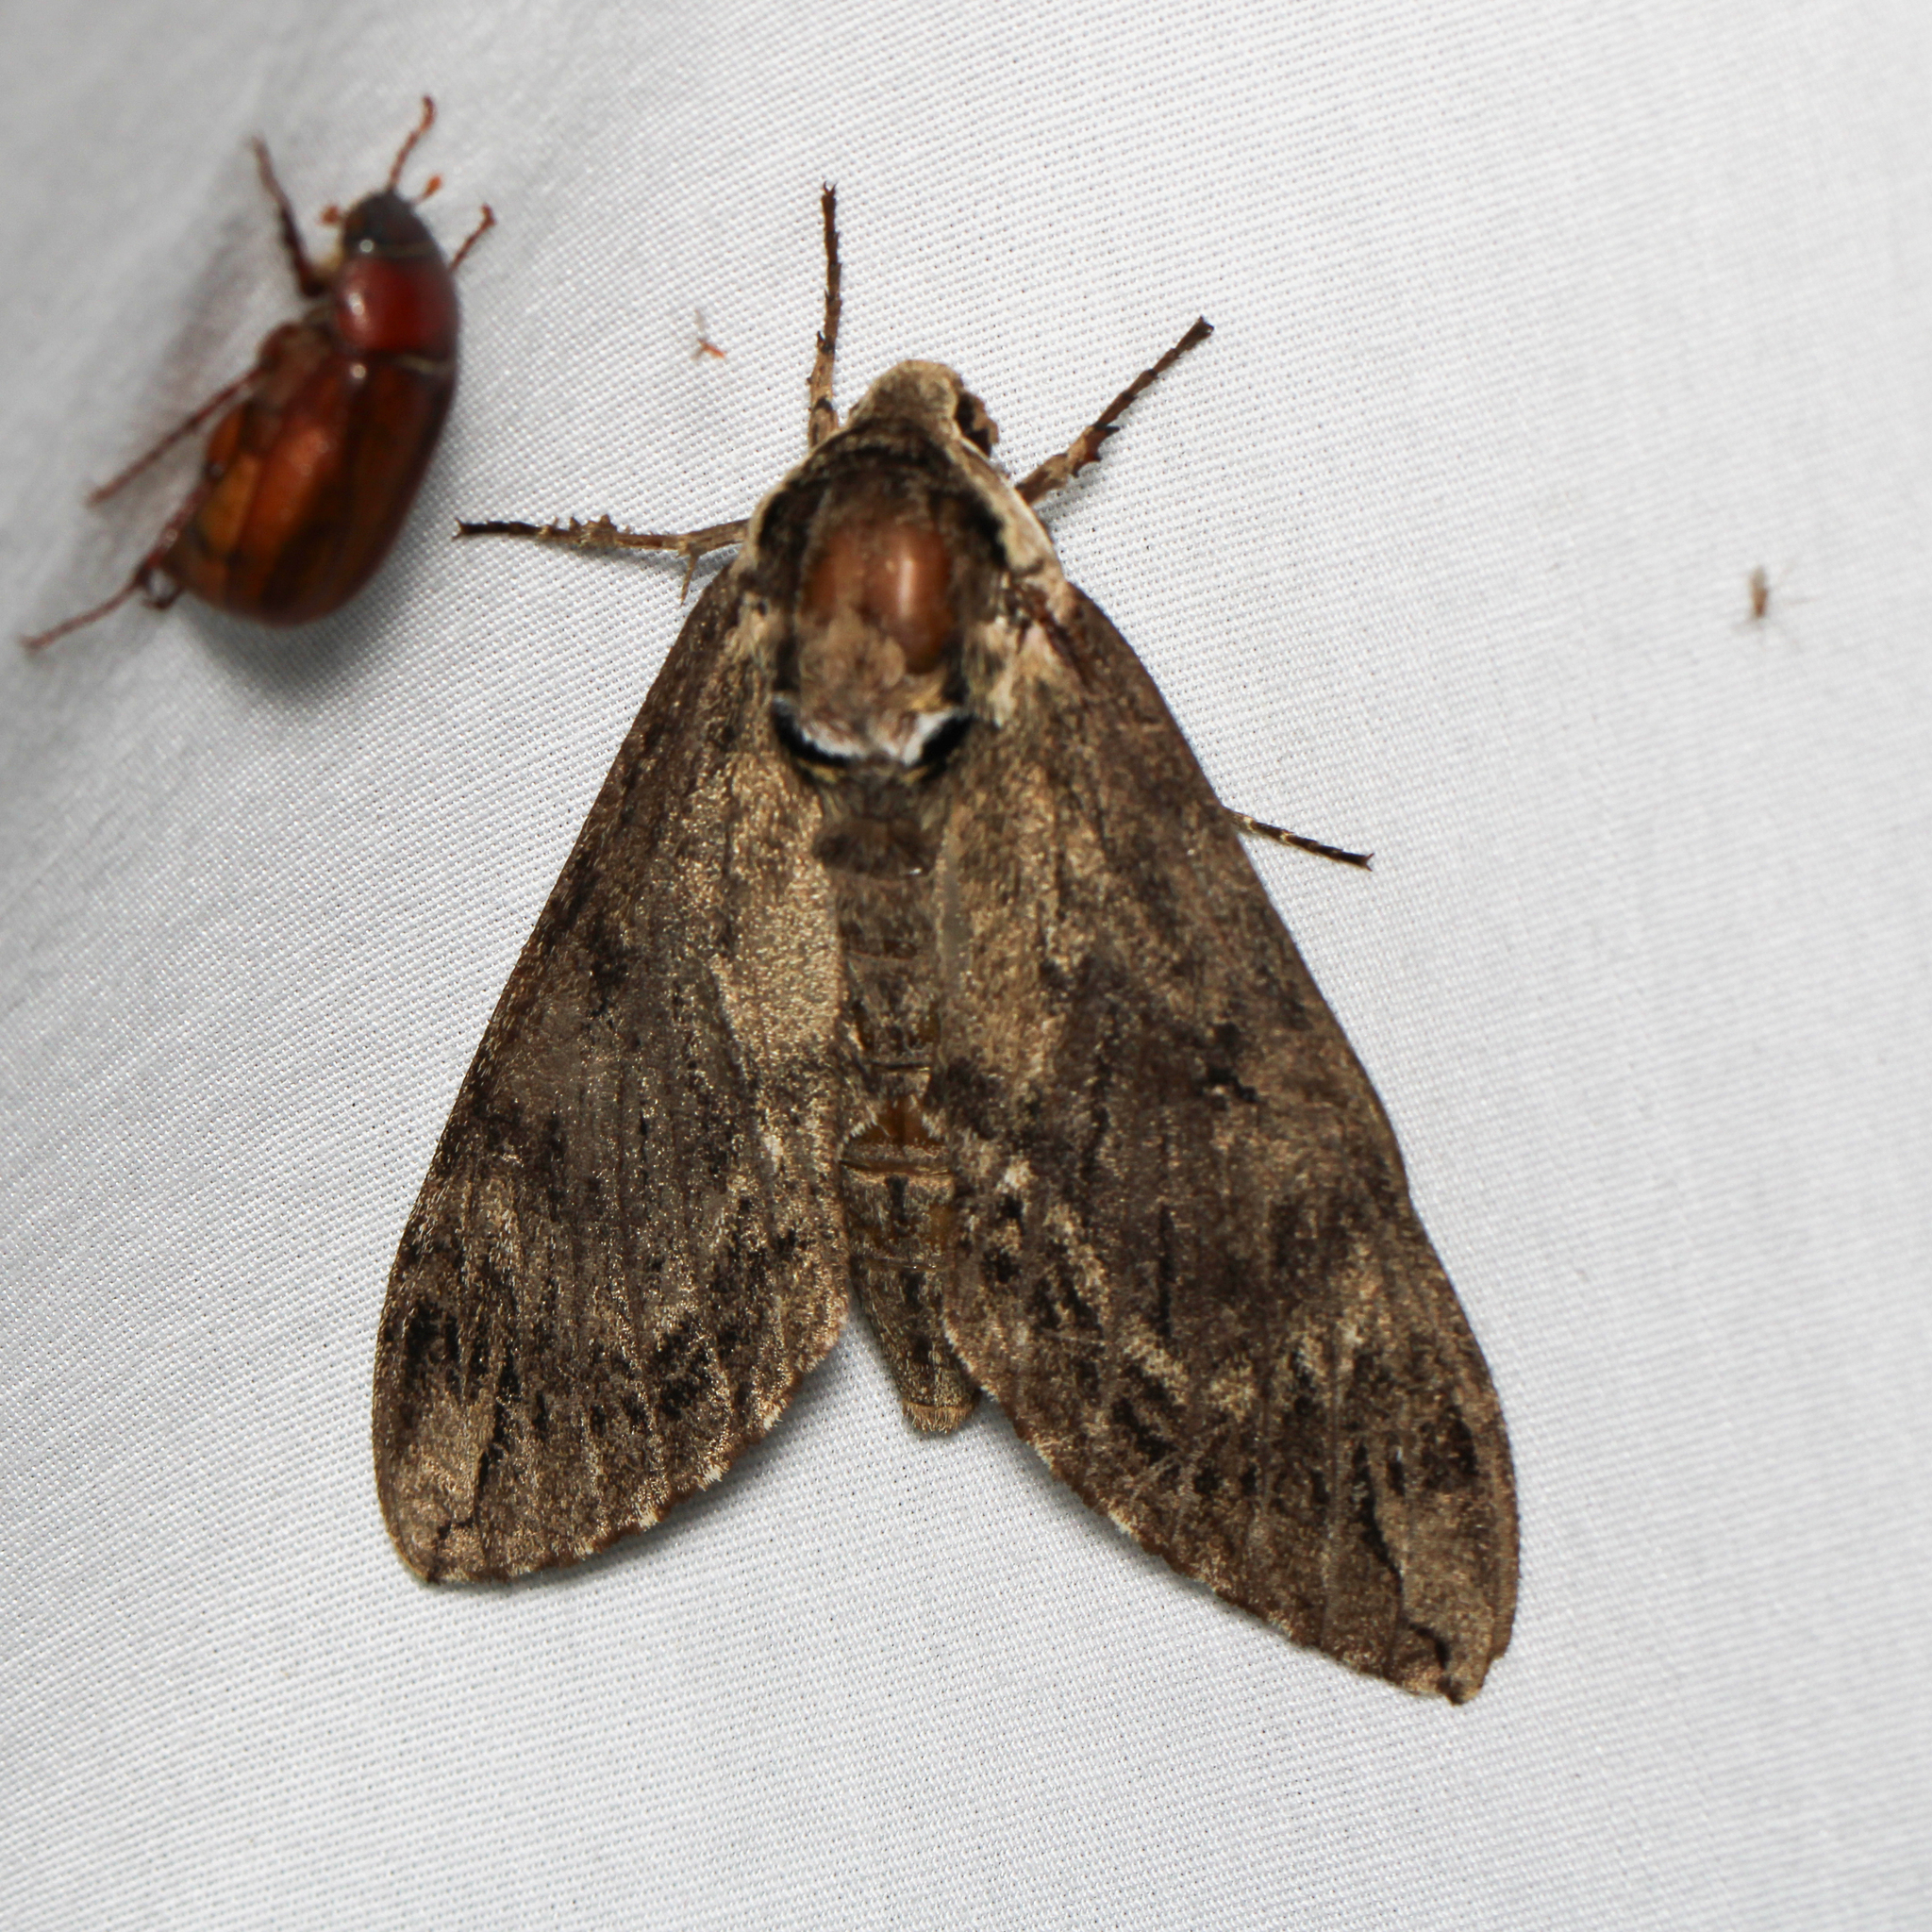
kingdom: Animalia
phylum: Arthropoda
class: Insecta
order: Lepidoptera
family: Sphingidae
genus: Ceratomia
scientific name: Ceratomia catalpae
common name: Catalpa hornworm
